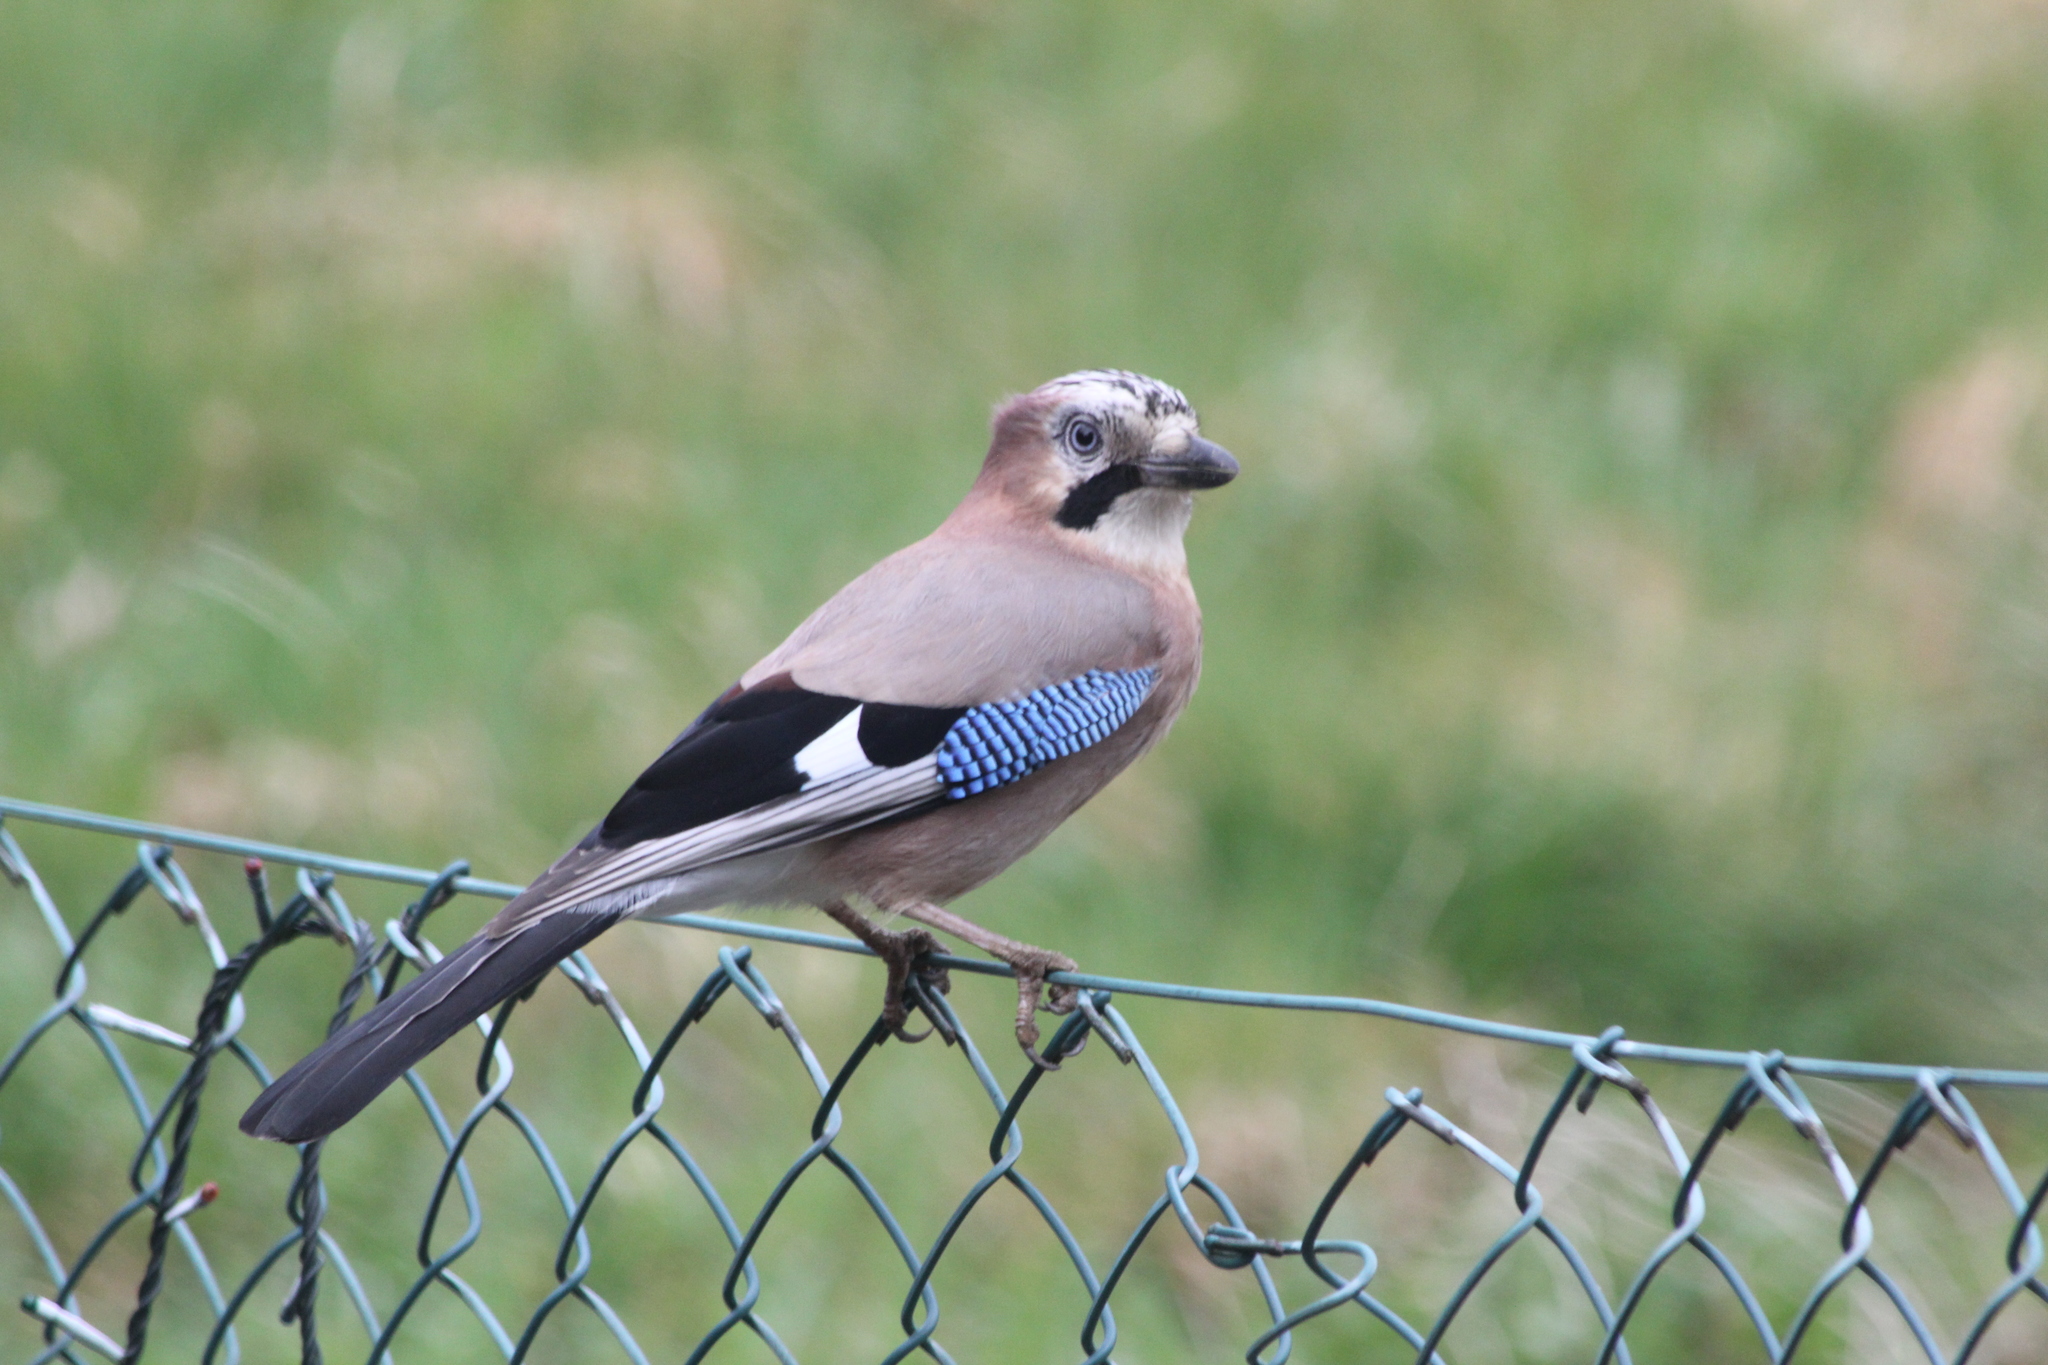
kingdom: Animalia
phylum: Chordata
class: Aves
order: Passeriformes
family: Corvidae
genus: Garrulus
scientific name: Garrulus glandarius
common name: Eurasian jay
